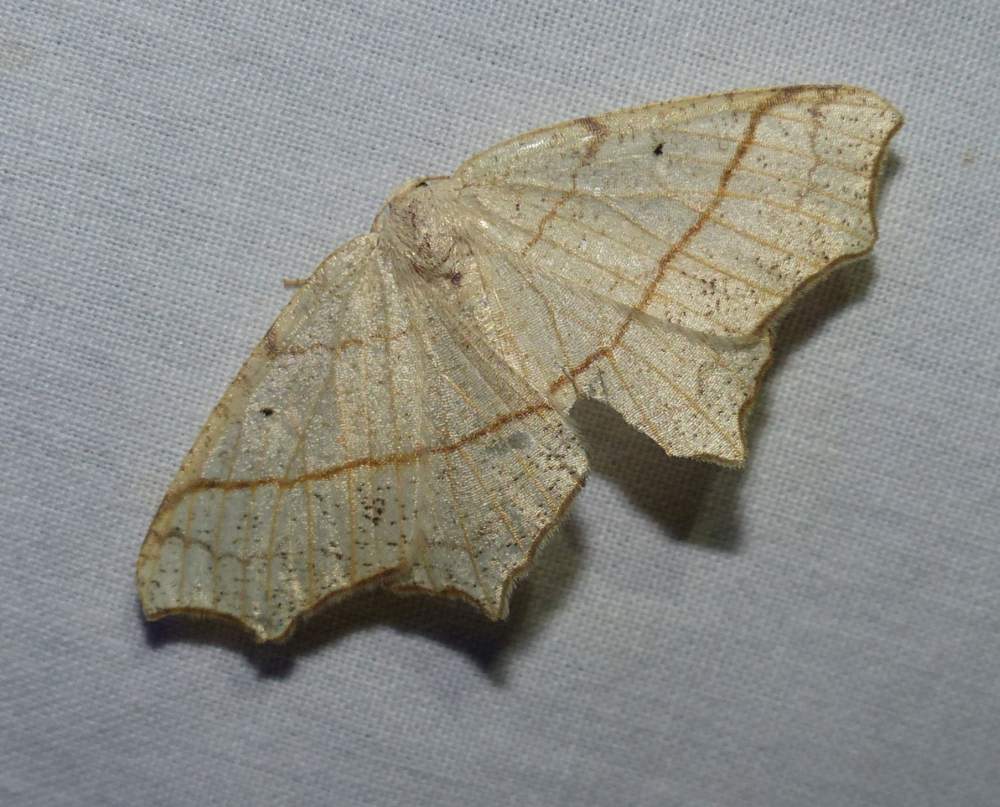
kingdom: Animalia
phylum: Arthropoda
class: Insecta
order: Lepidoptera
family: Geometridae
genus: Besma
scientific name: Besma quercivoraria
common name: Oak besma
